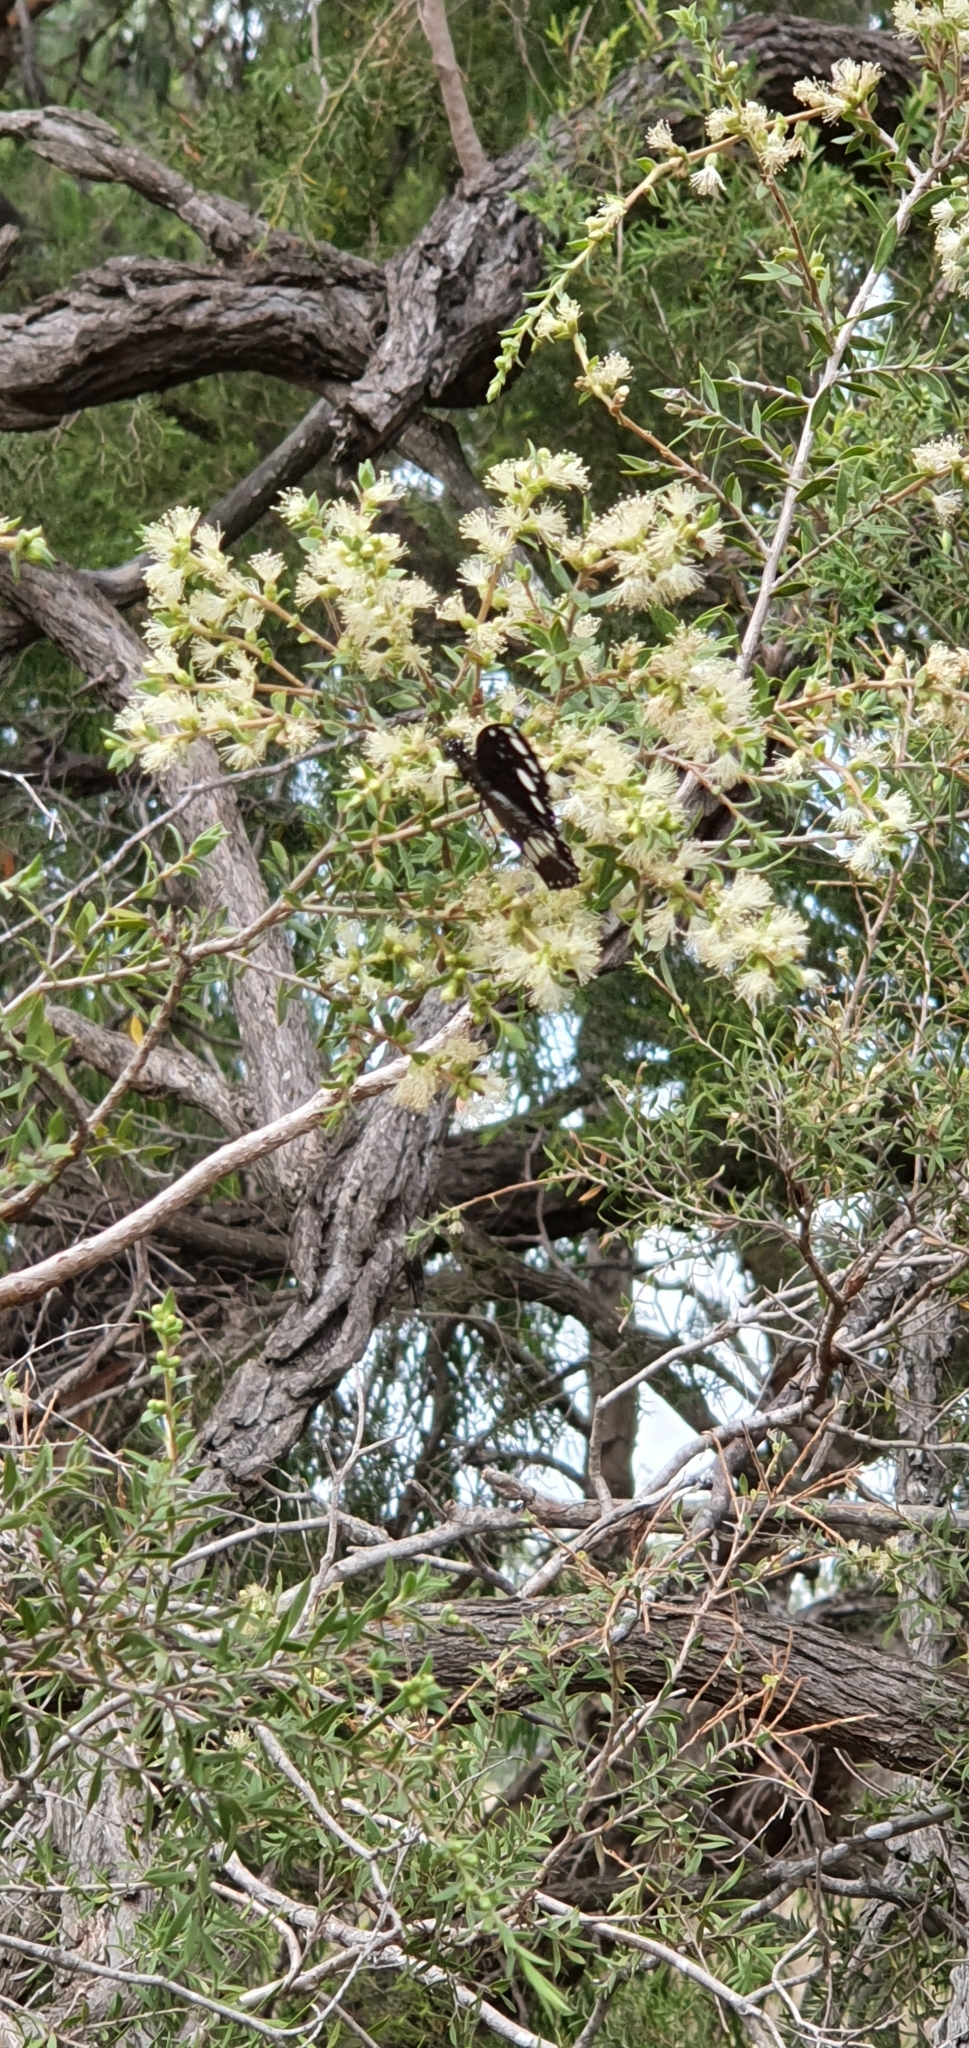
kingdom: Animalia
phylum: Arthropoda
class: Insecta
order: Lepidoptera
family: Nymphalidae
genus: Euploea
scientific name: Euploea core
